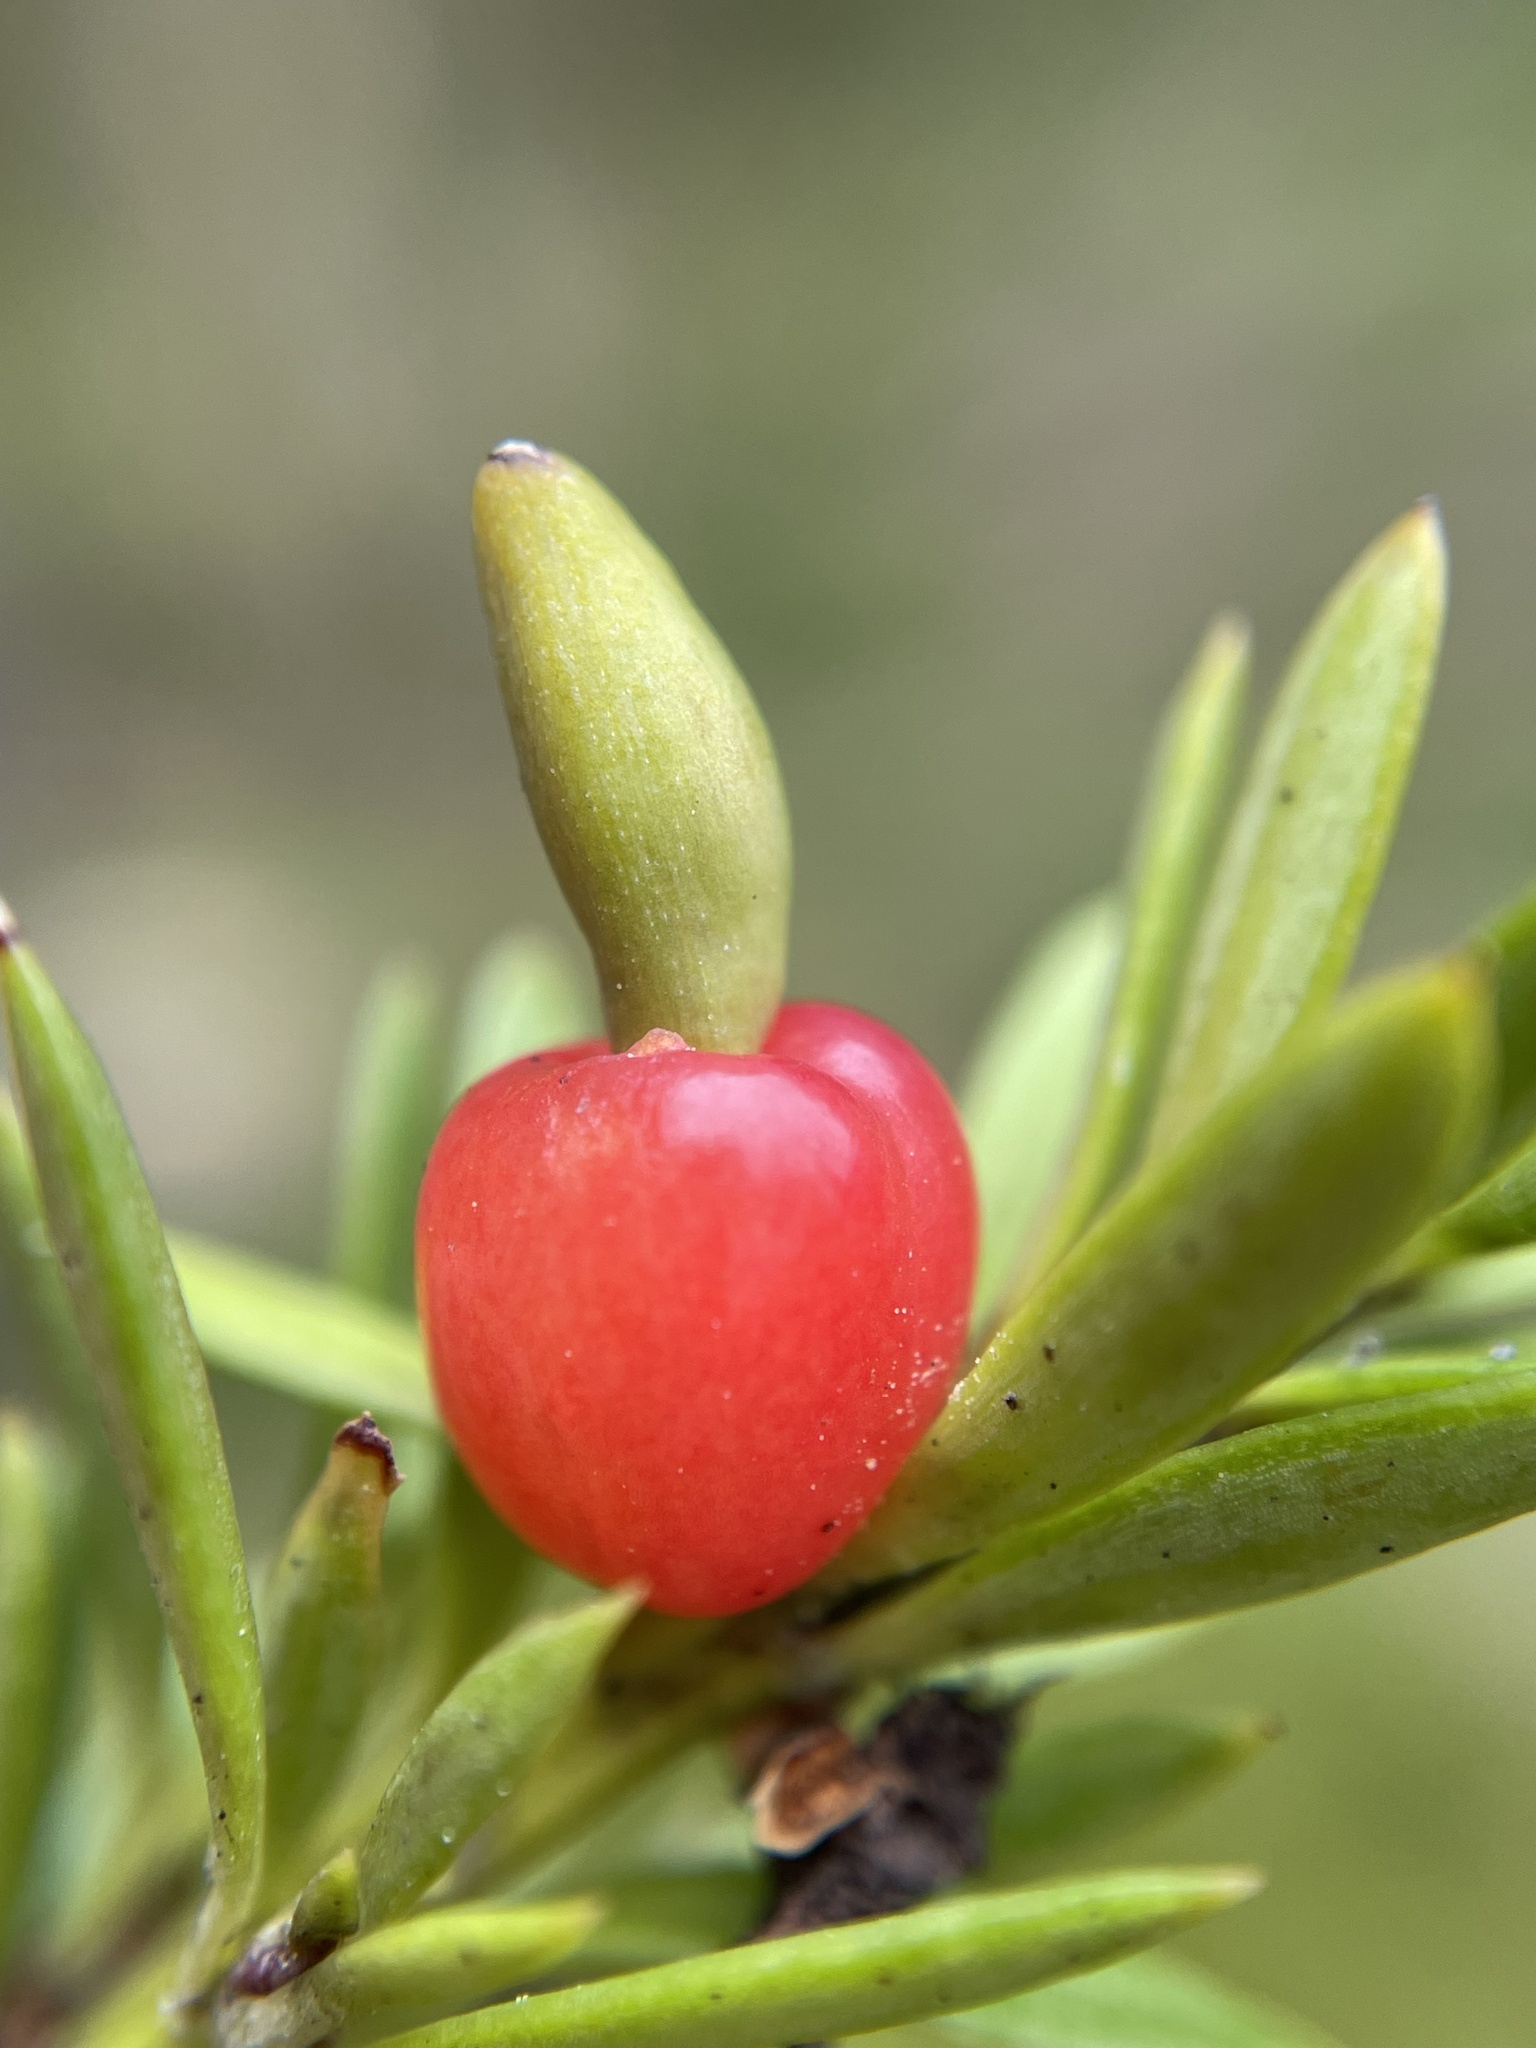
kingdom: Plantae
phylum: Tracheophyta
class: Pinopsida
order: Pinales
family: Podocarpaceae
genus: Podocarpus
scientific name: Podocarpus nivalis
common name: Alpine totara
